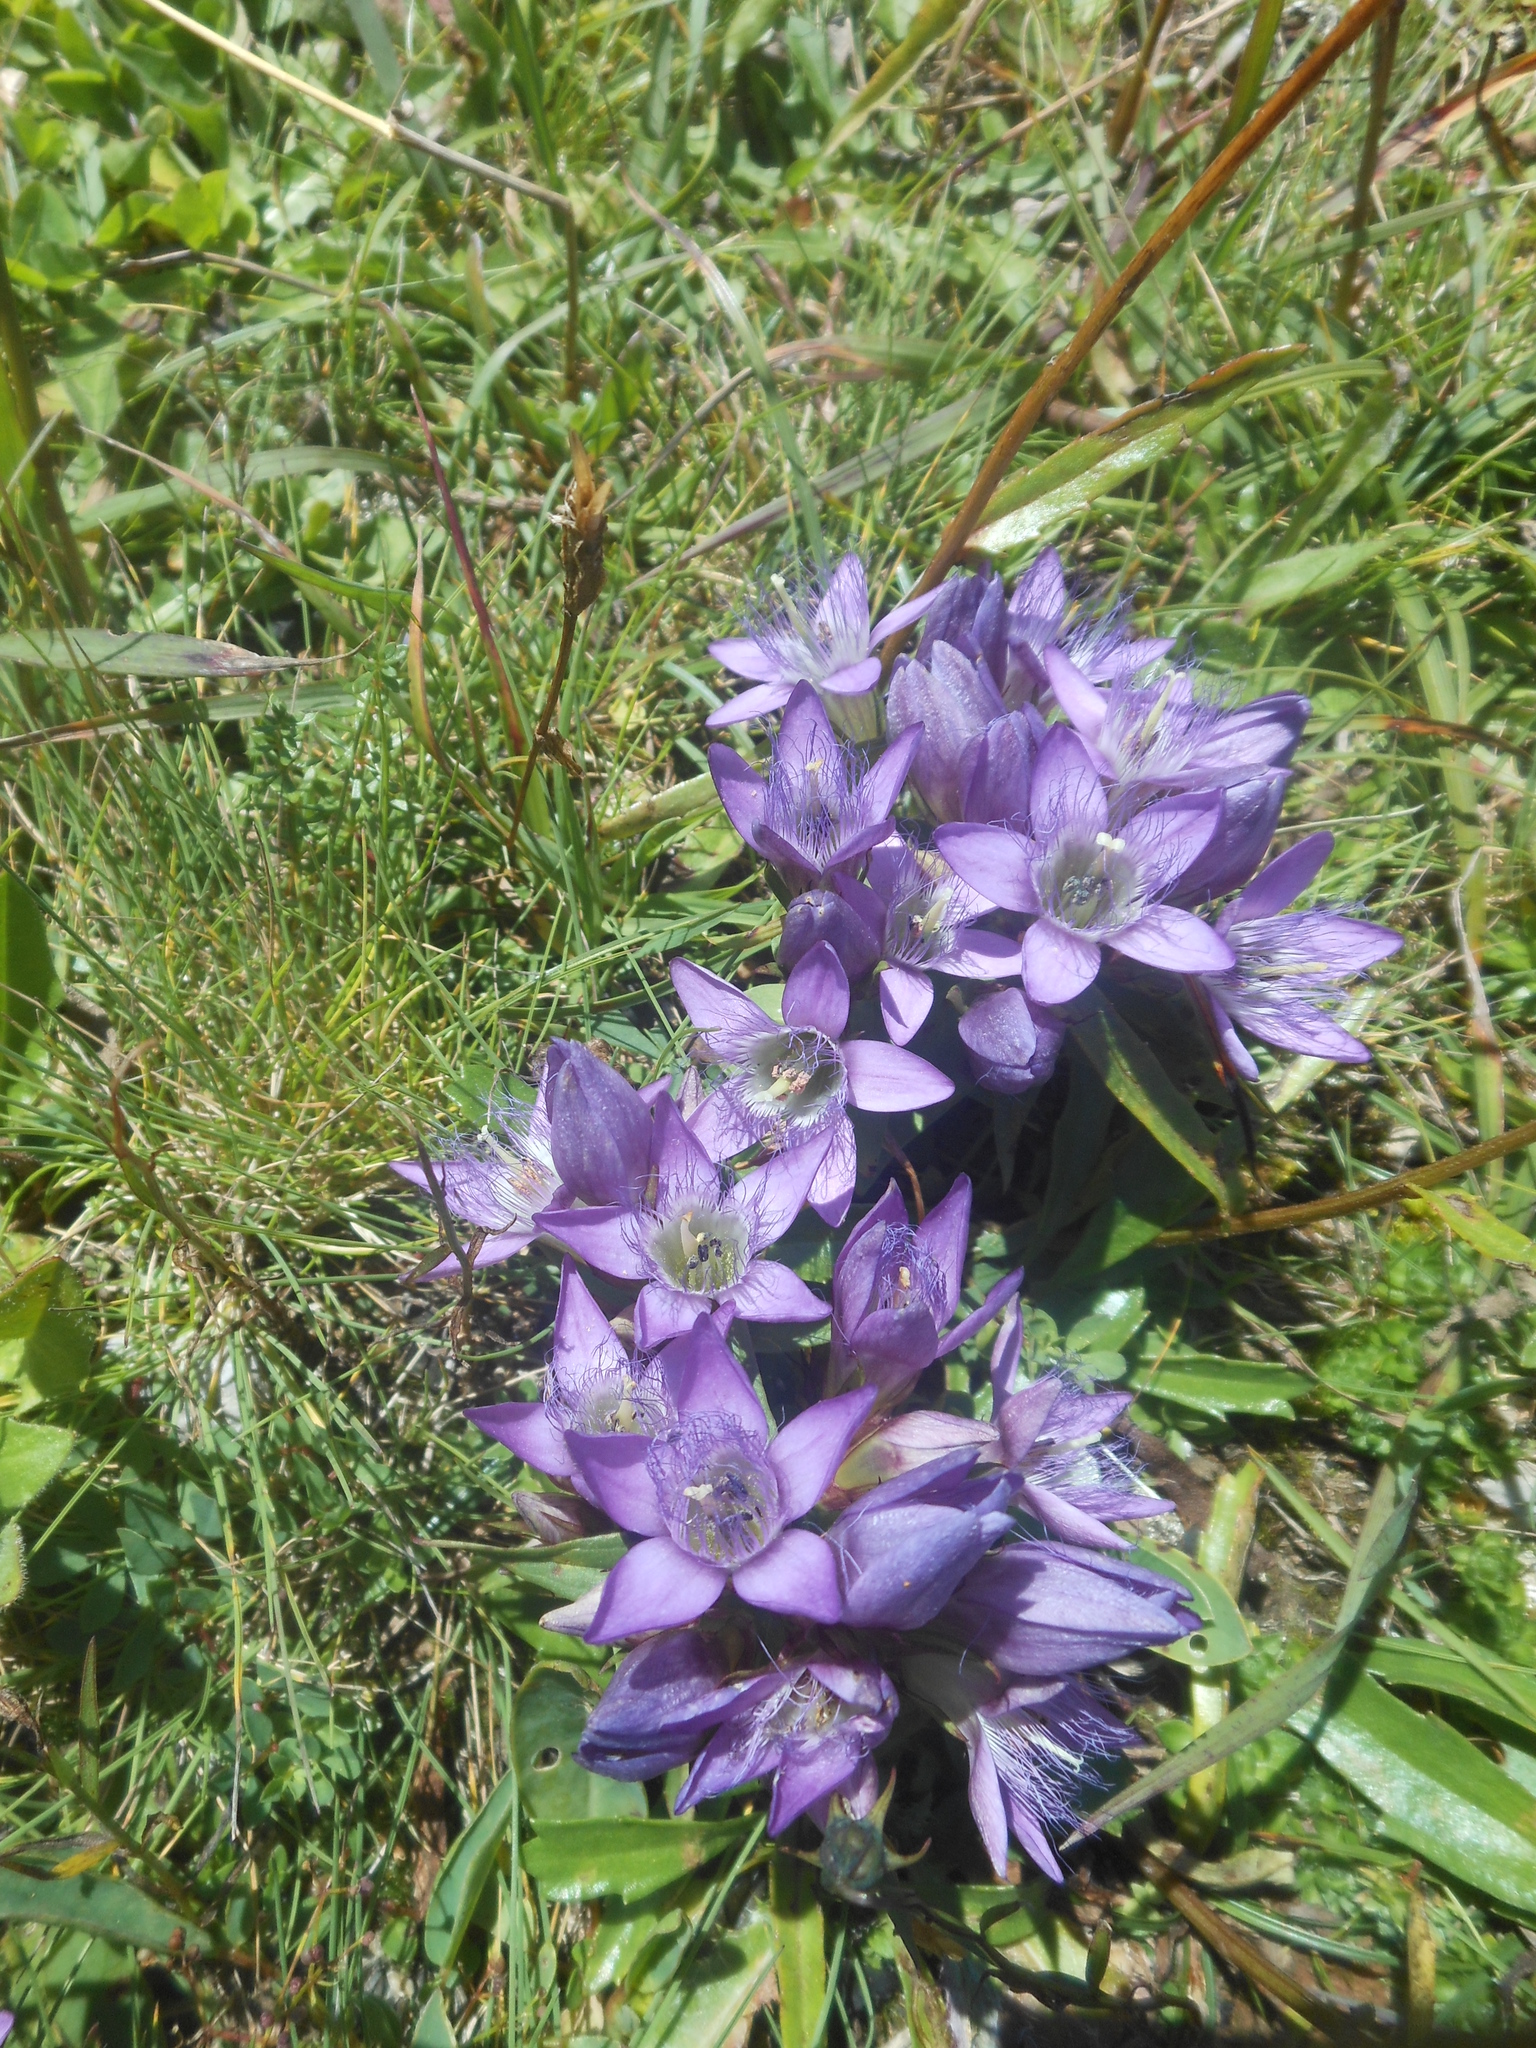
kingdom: Plantae
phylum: Tracheophyta
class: Magnoliopsida
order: Gentianales
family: Gentianaceae
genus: Gentianella
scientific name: Gentianella austriaca
